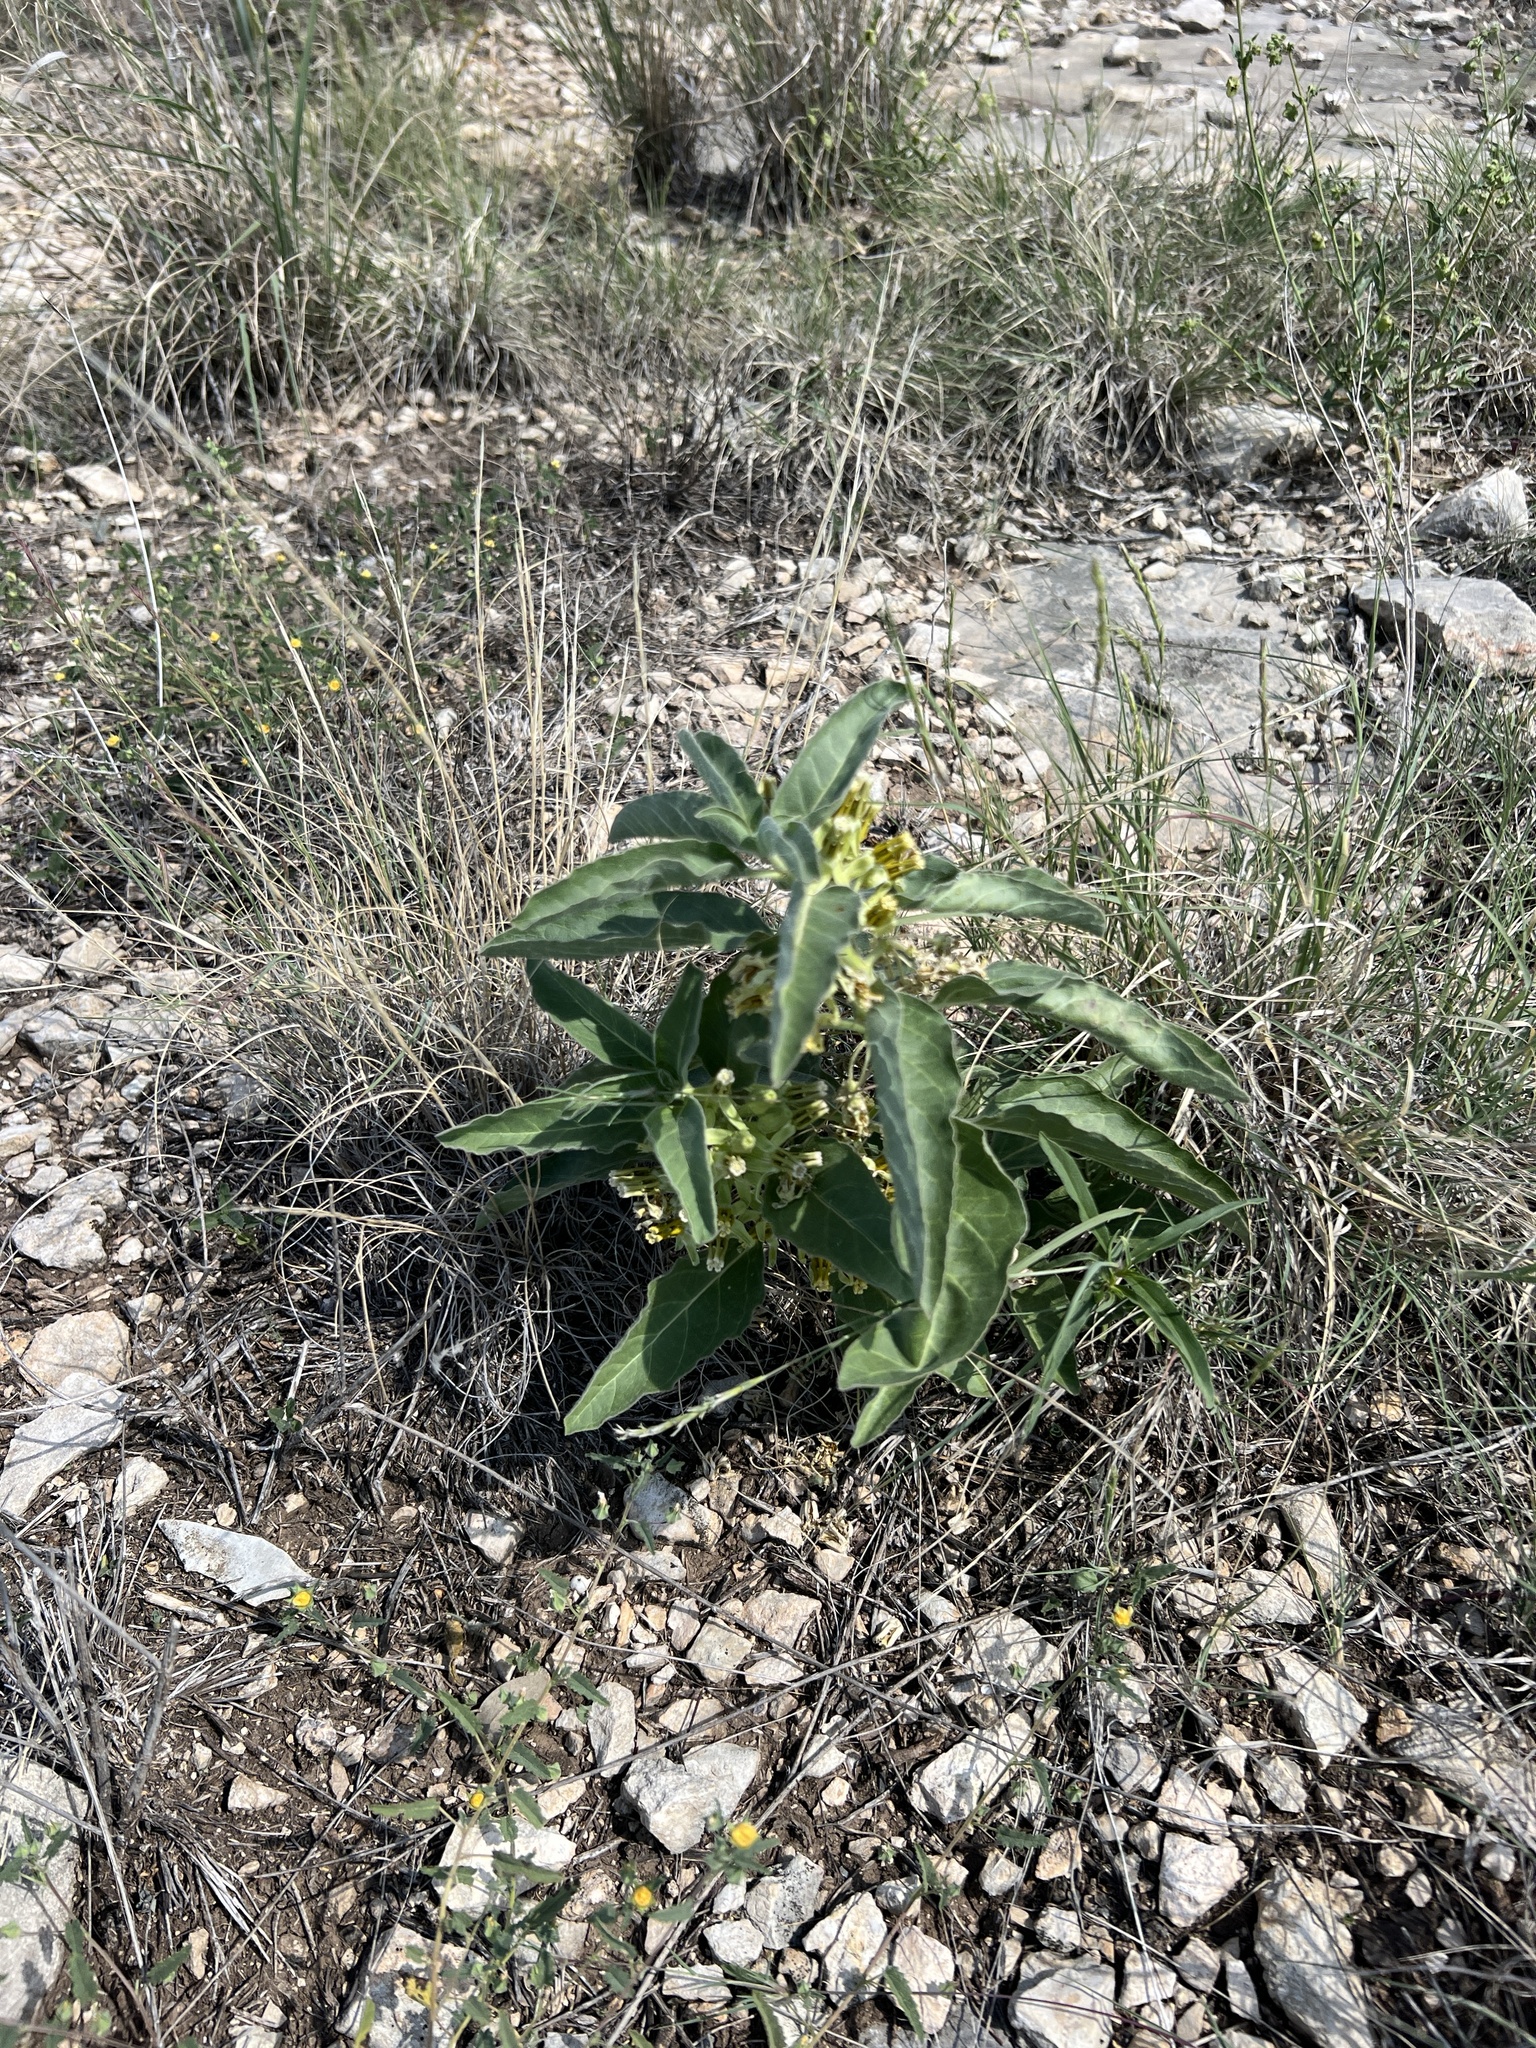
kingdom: Plantae
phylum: Tracheophyta
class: Magnoliopsida
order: Gentianales
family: Apocynaceae
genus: Asclepias
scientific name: Asclepias oenotheroides
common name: Zizotes milkweed
